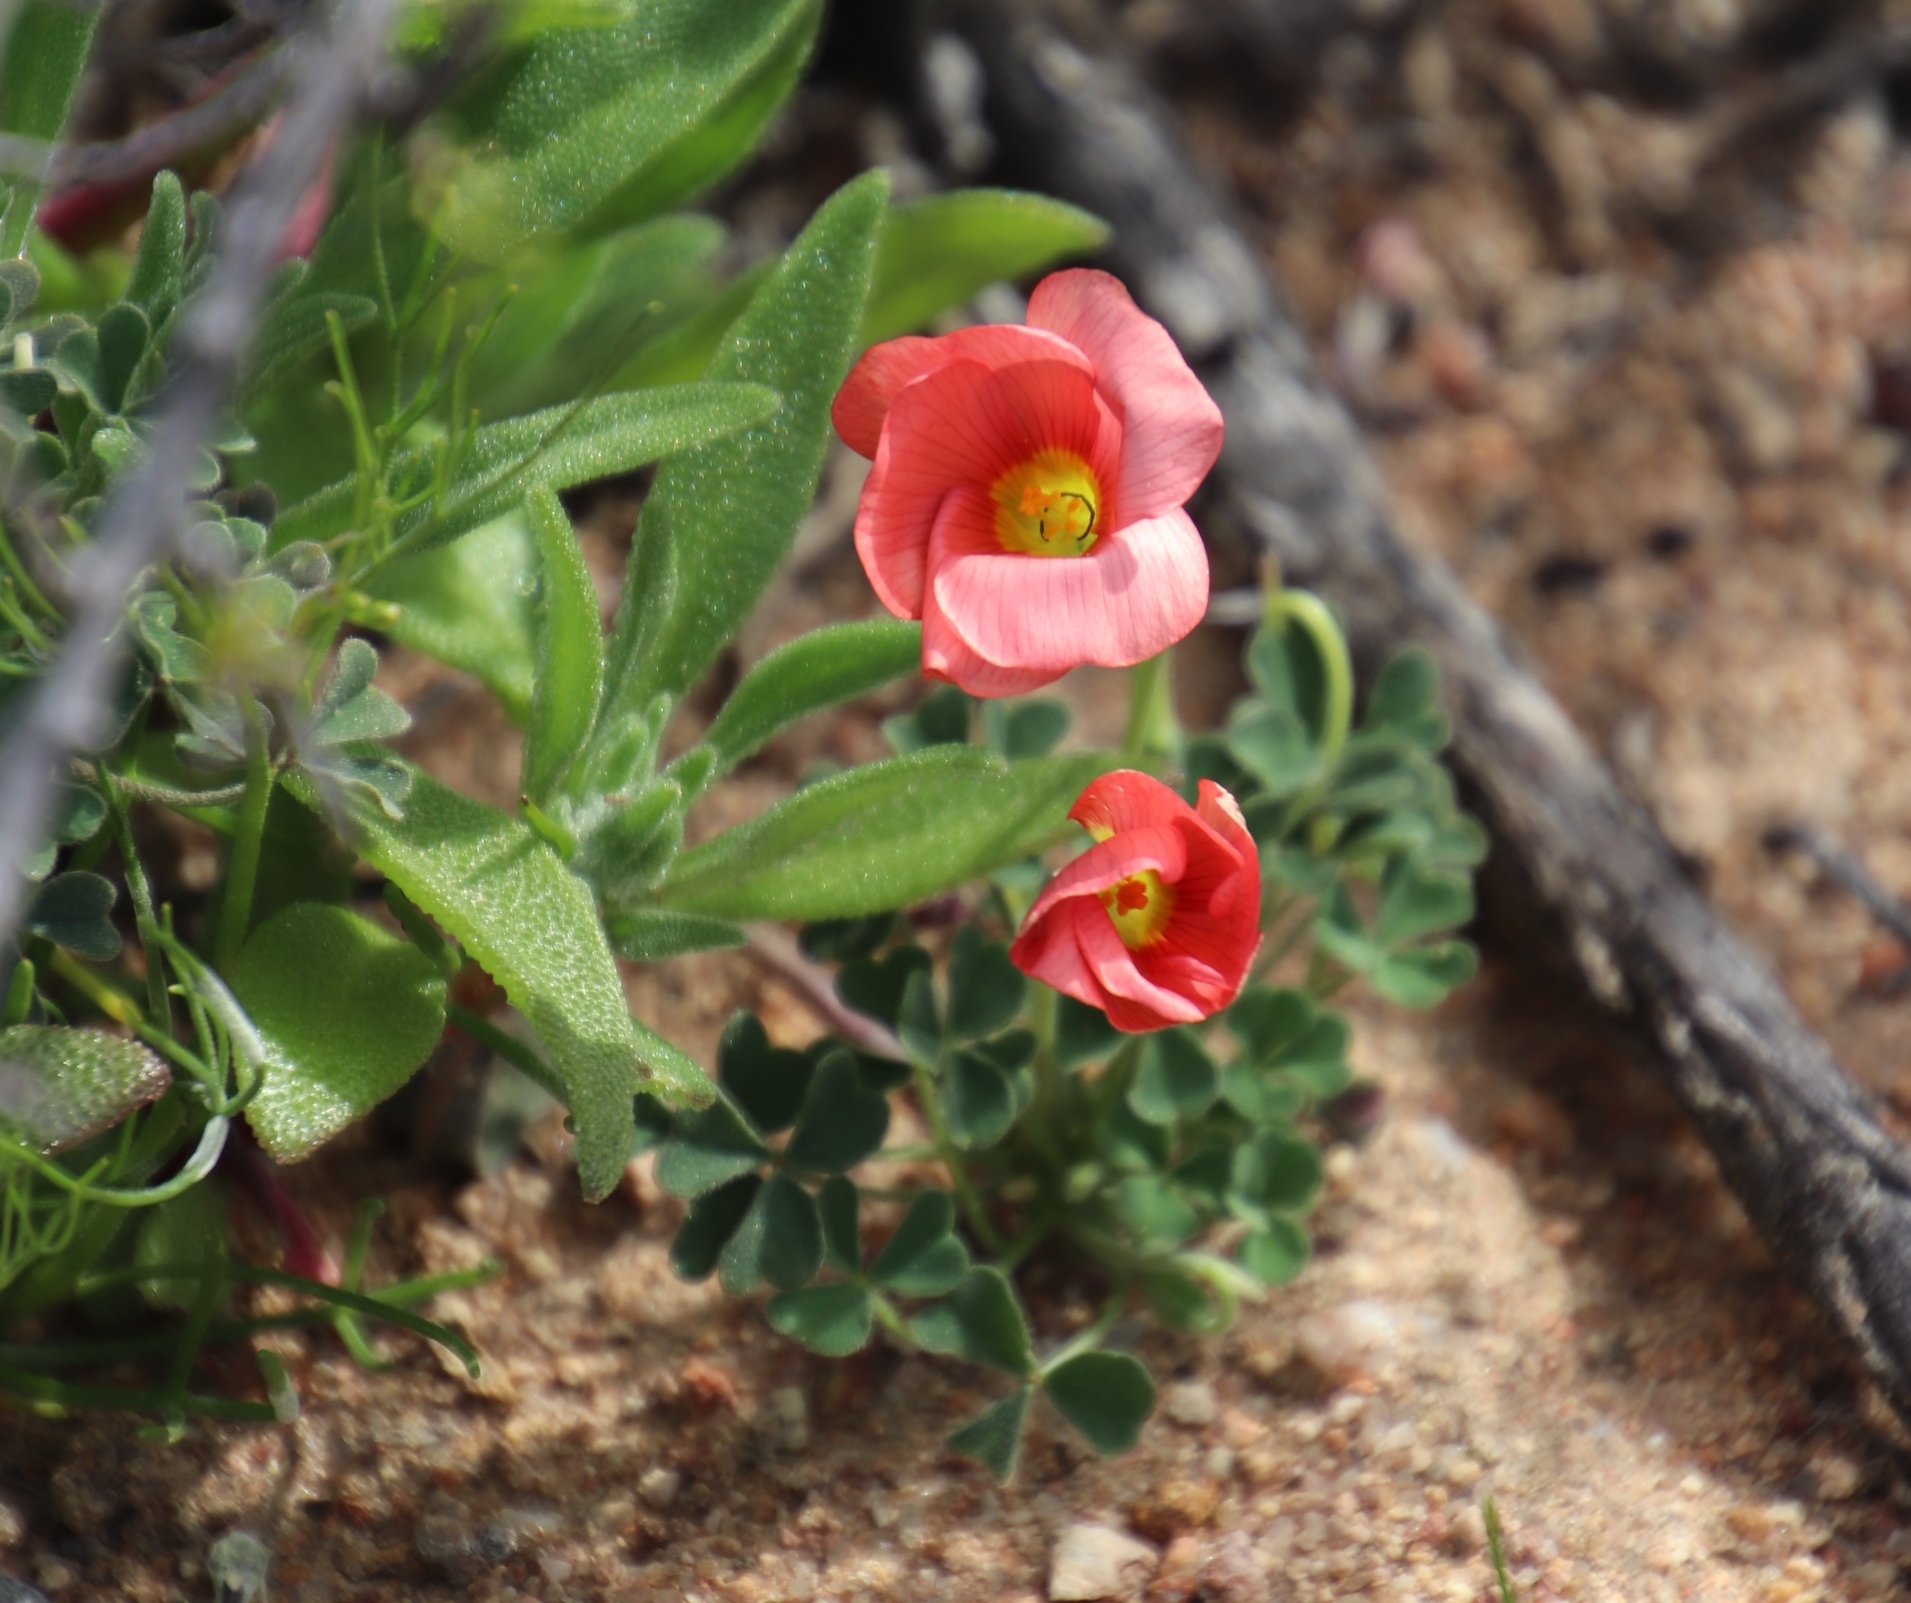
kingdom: Plantae
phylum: Tracheophyta
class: Magnoliopsida
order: Oxalidales
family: Oxalidaceae
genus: Oxalis
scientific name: Oxalis obtusa
